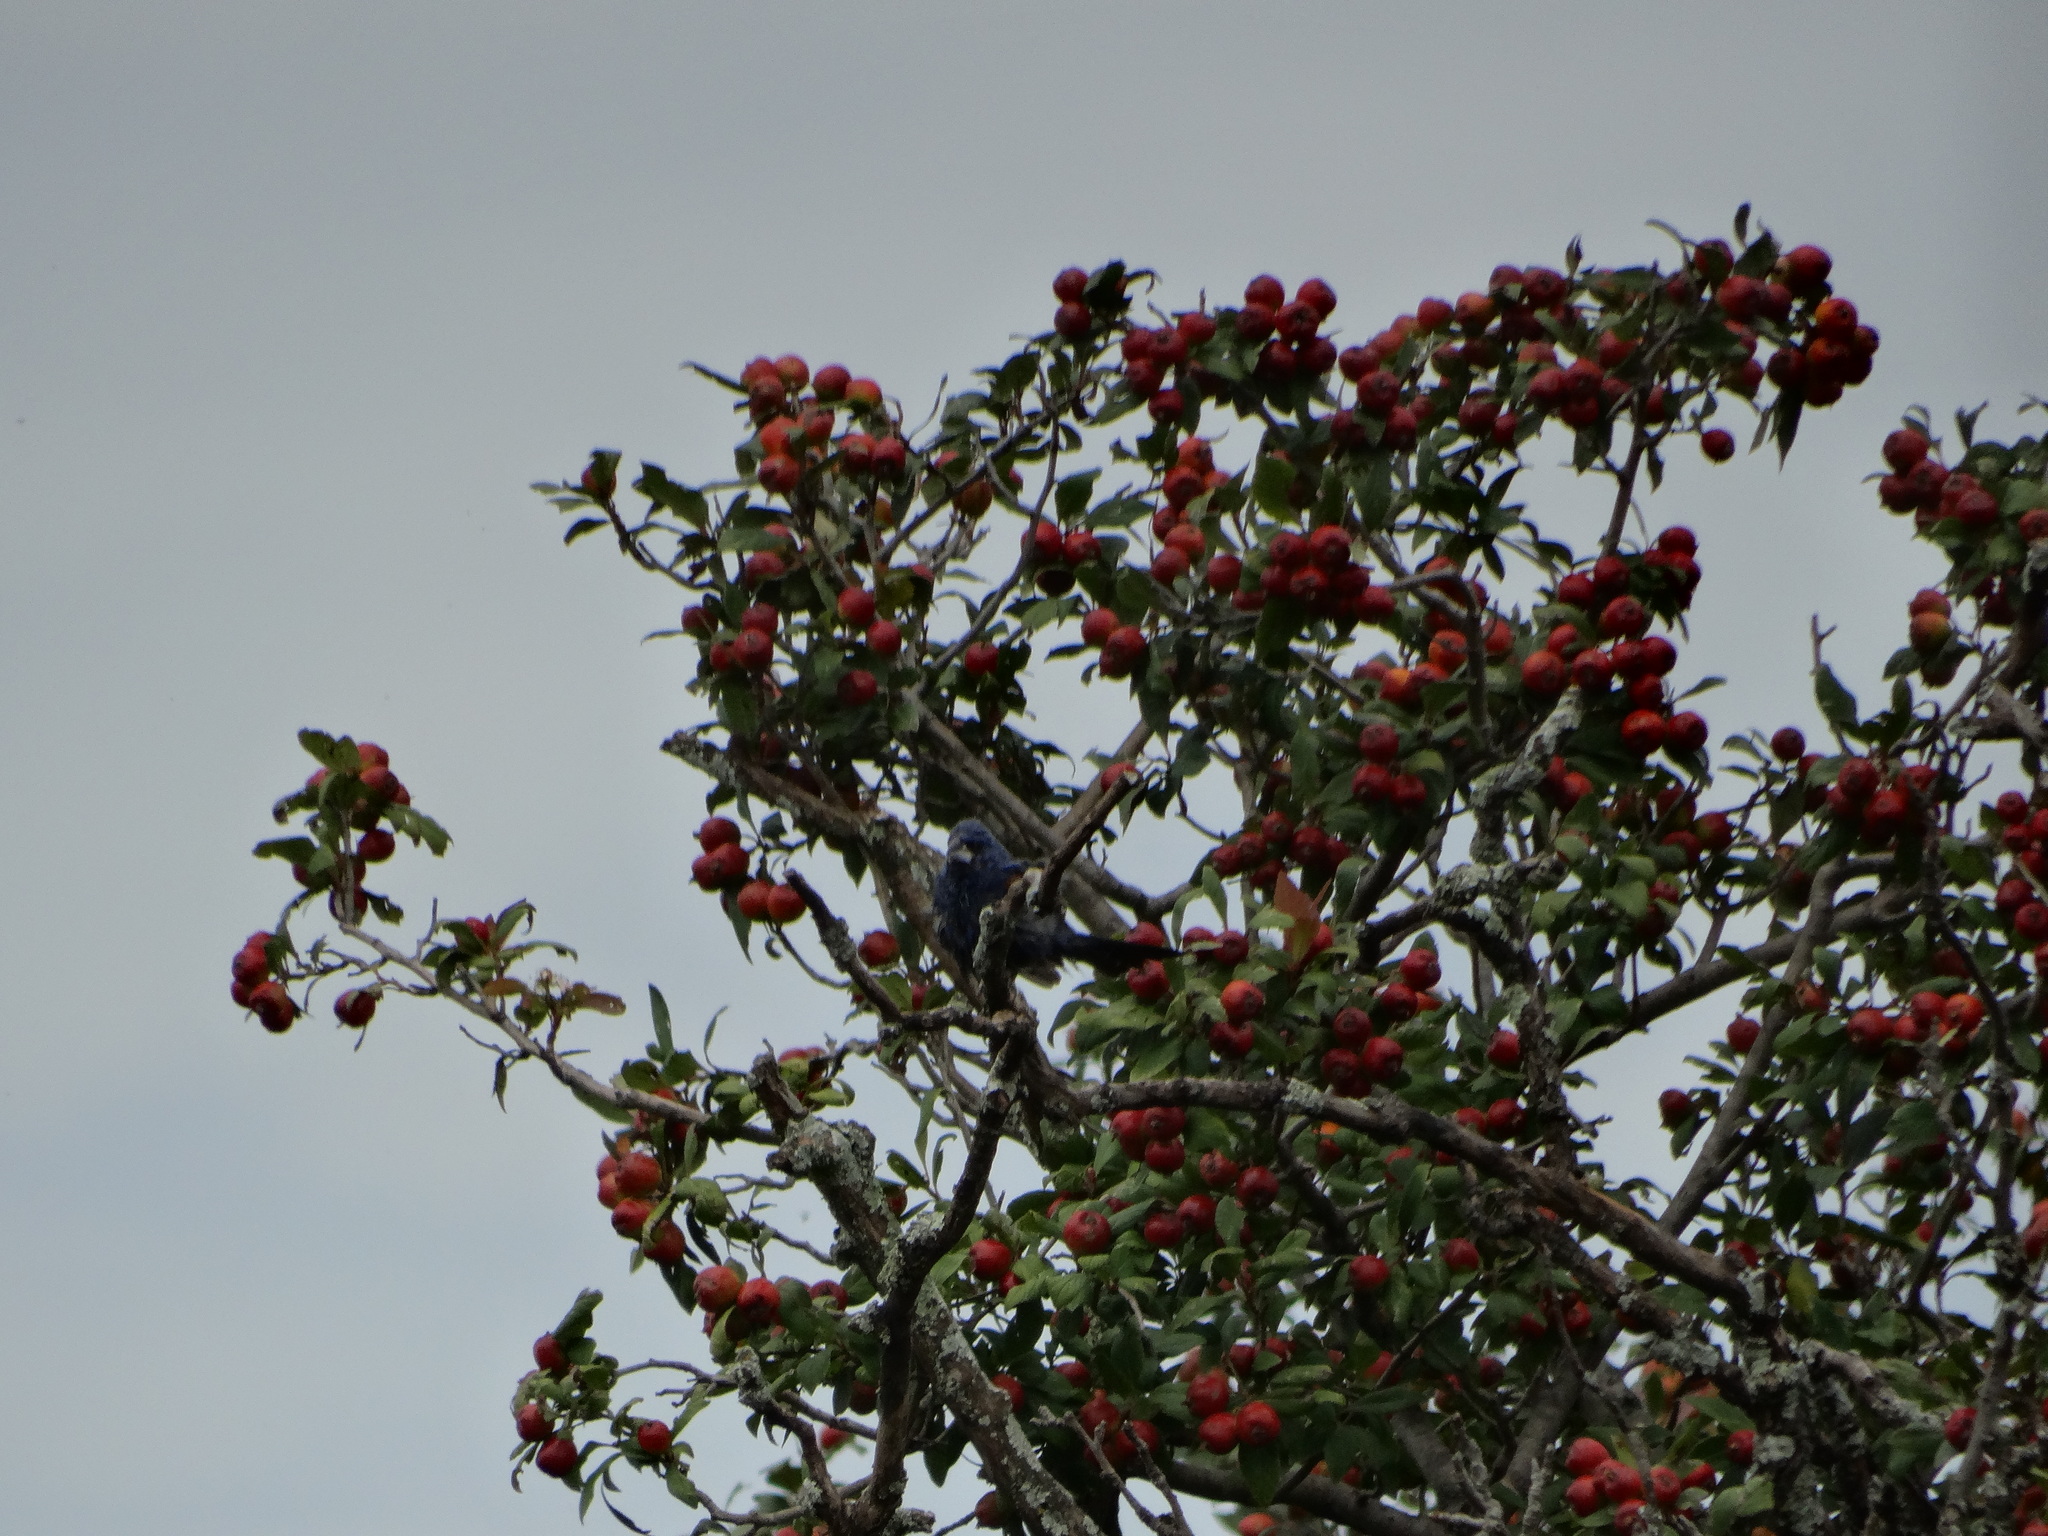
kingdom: Animalia
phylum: Chordata
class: Aves
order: Passeriformes
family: Cardinalidae
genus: Passerina
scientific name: Passerina caerulea
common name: Blue grosbeak
